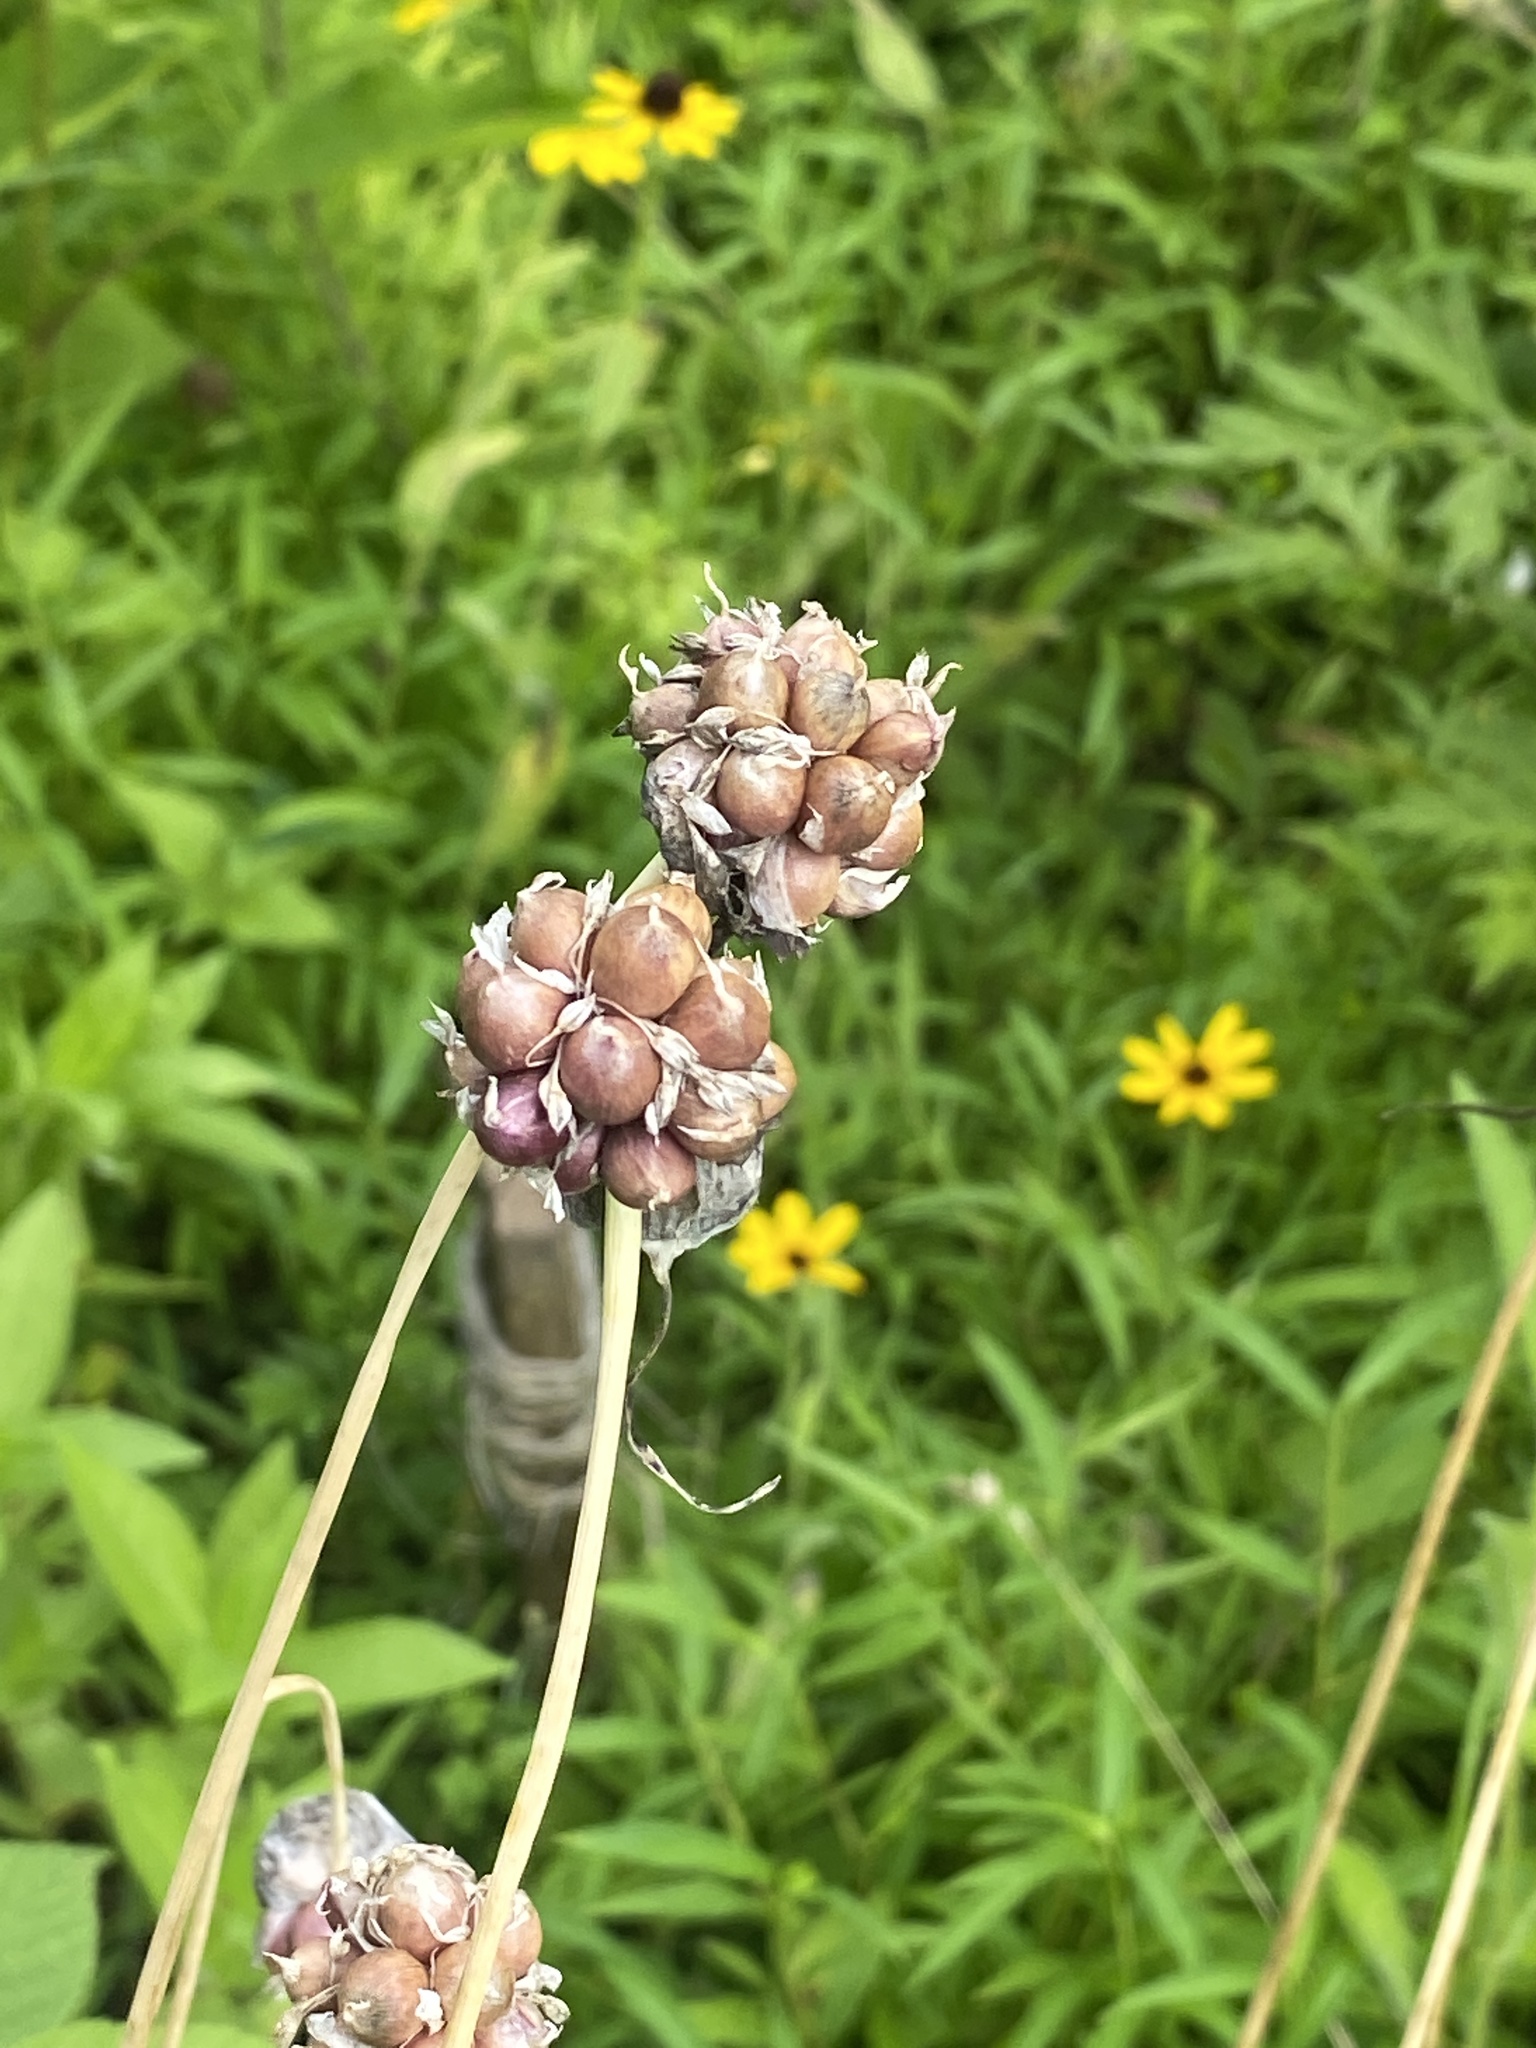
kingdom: Plantae
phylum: Tracheophyta
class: Liliopsida
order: Asparagales
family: Amaryllidaceae
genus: Allium
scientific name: Allium vineale
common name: Crow garlic
